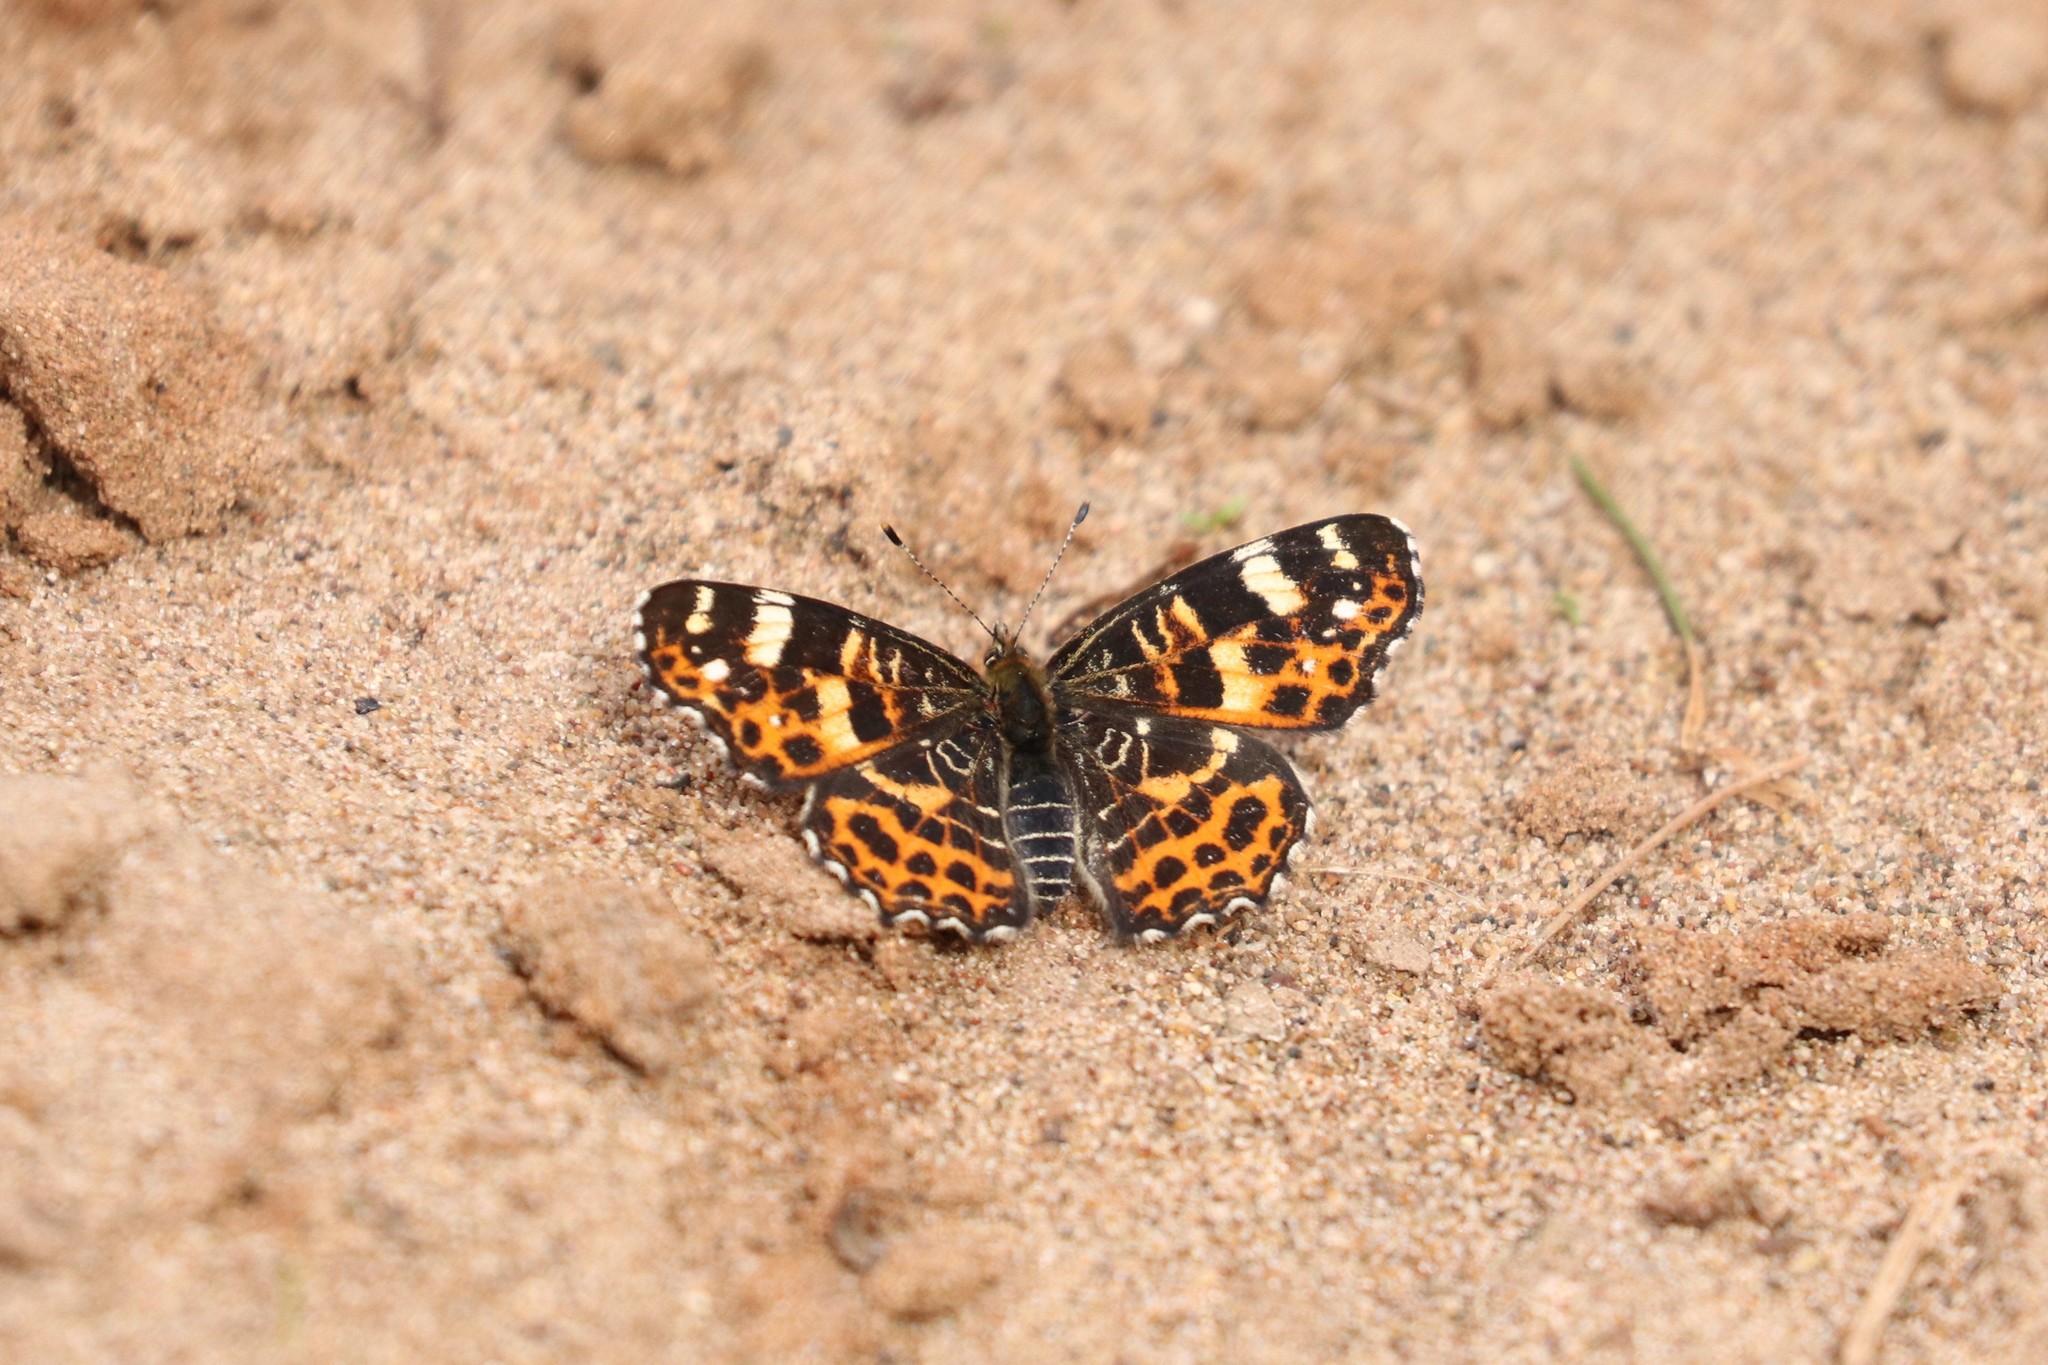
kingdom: Animalia
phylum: Arthropoda
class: Insecta
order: Lepidoptera
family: Nymphalidae
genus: Araschnia
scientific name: Araschnia levana
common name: Map butterfly
